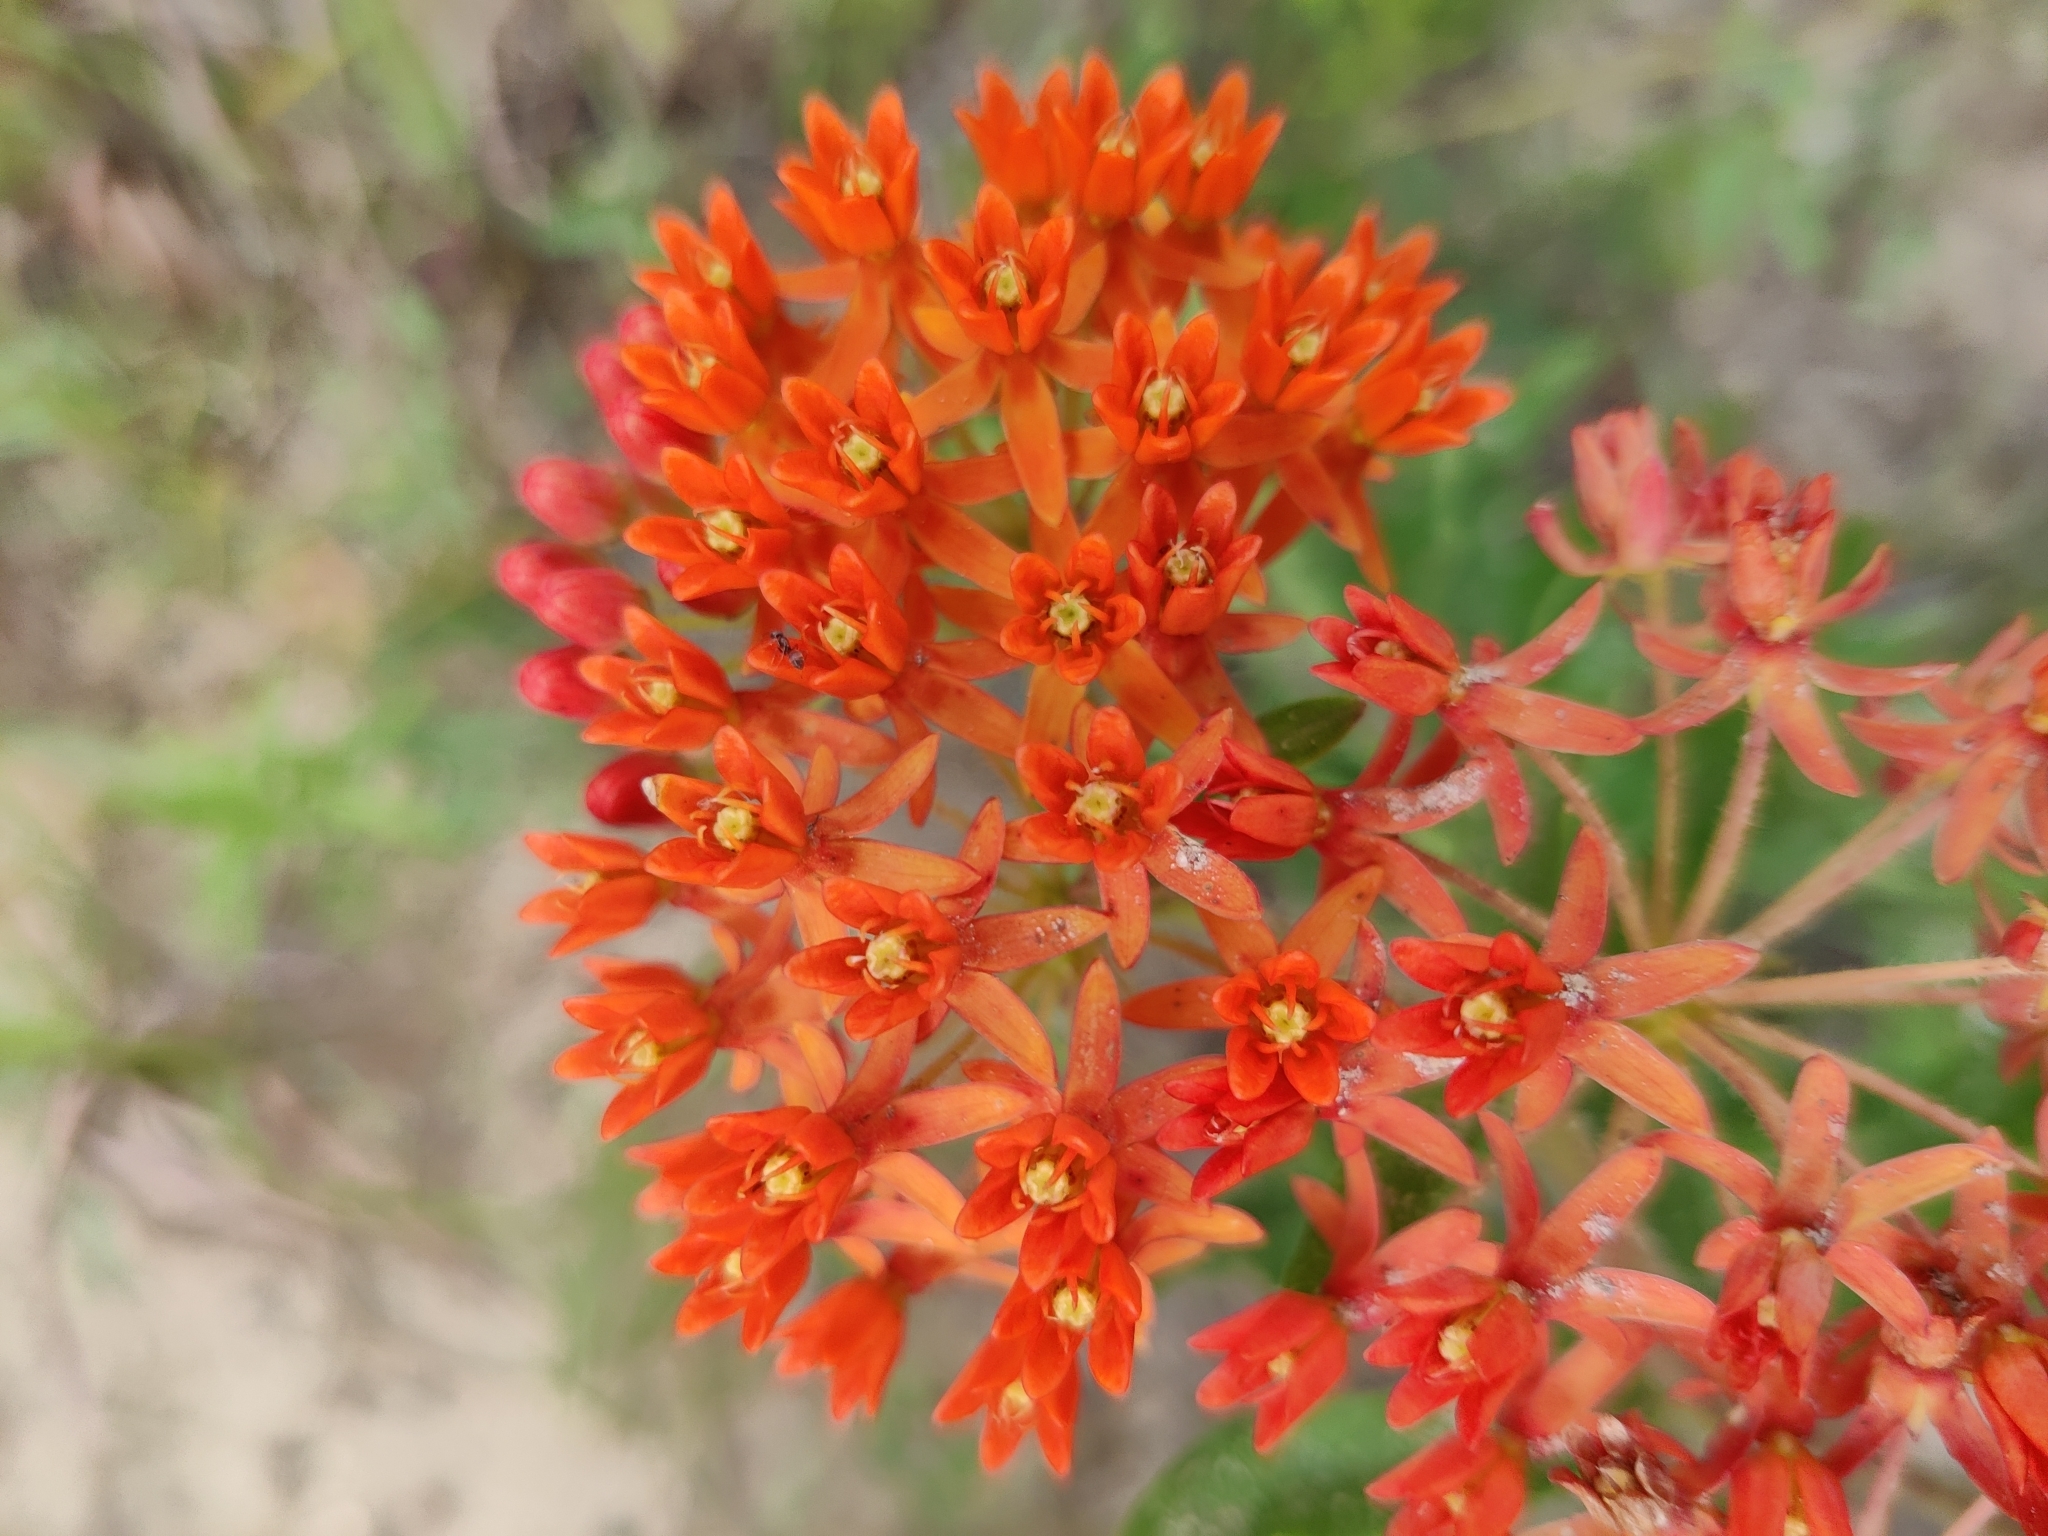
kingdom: Plantae
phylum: Tracheophyta
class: Magnoliopsida
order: Gentianales
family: Apocynaceae
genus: Asclepias
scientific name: Asclepias tuberosa
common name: Butterfly milkweed
